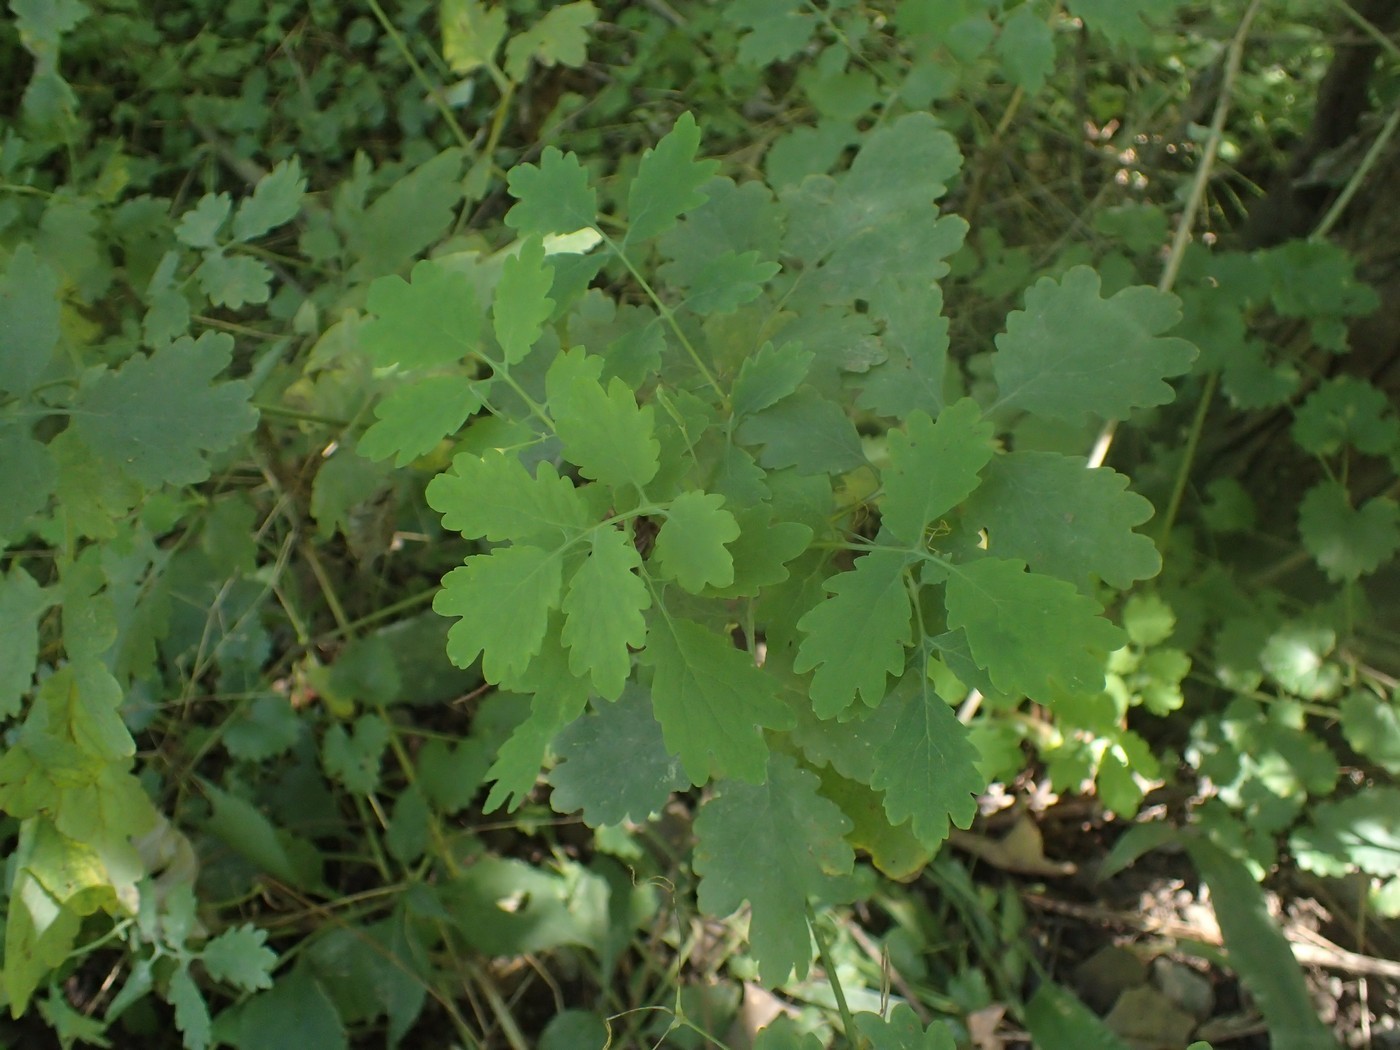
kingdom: Plantae
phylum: Tracheophyta
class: Magnoliopsida
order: Ranunculales
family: Papaveraceae
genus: Chelidonium
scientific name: Chelidonium majus
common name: Greater celandine
